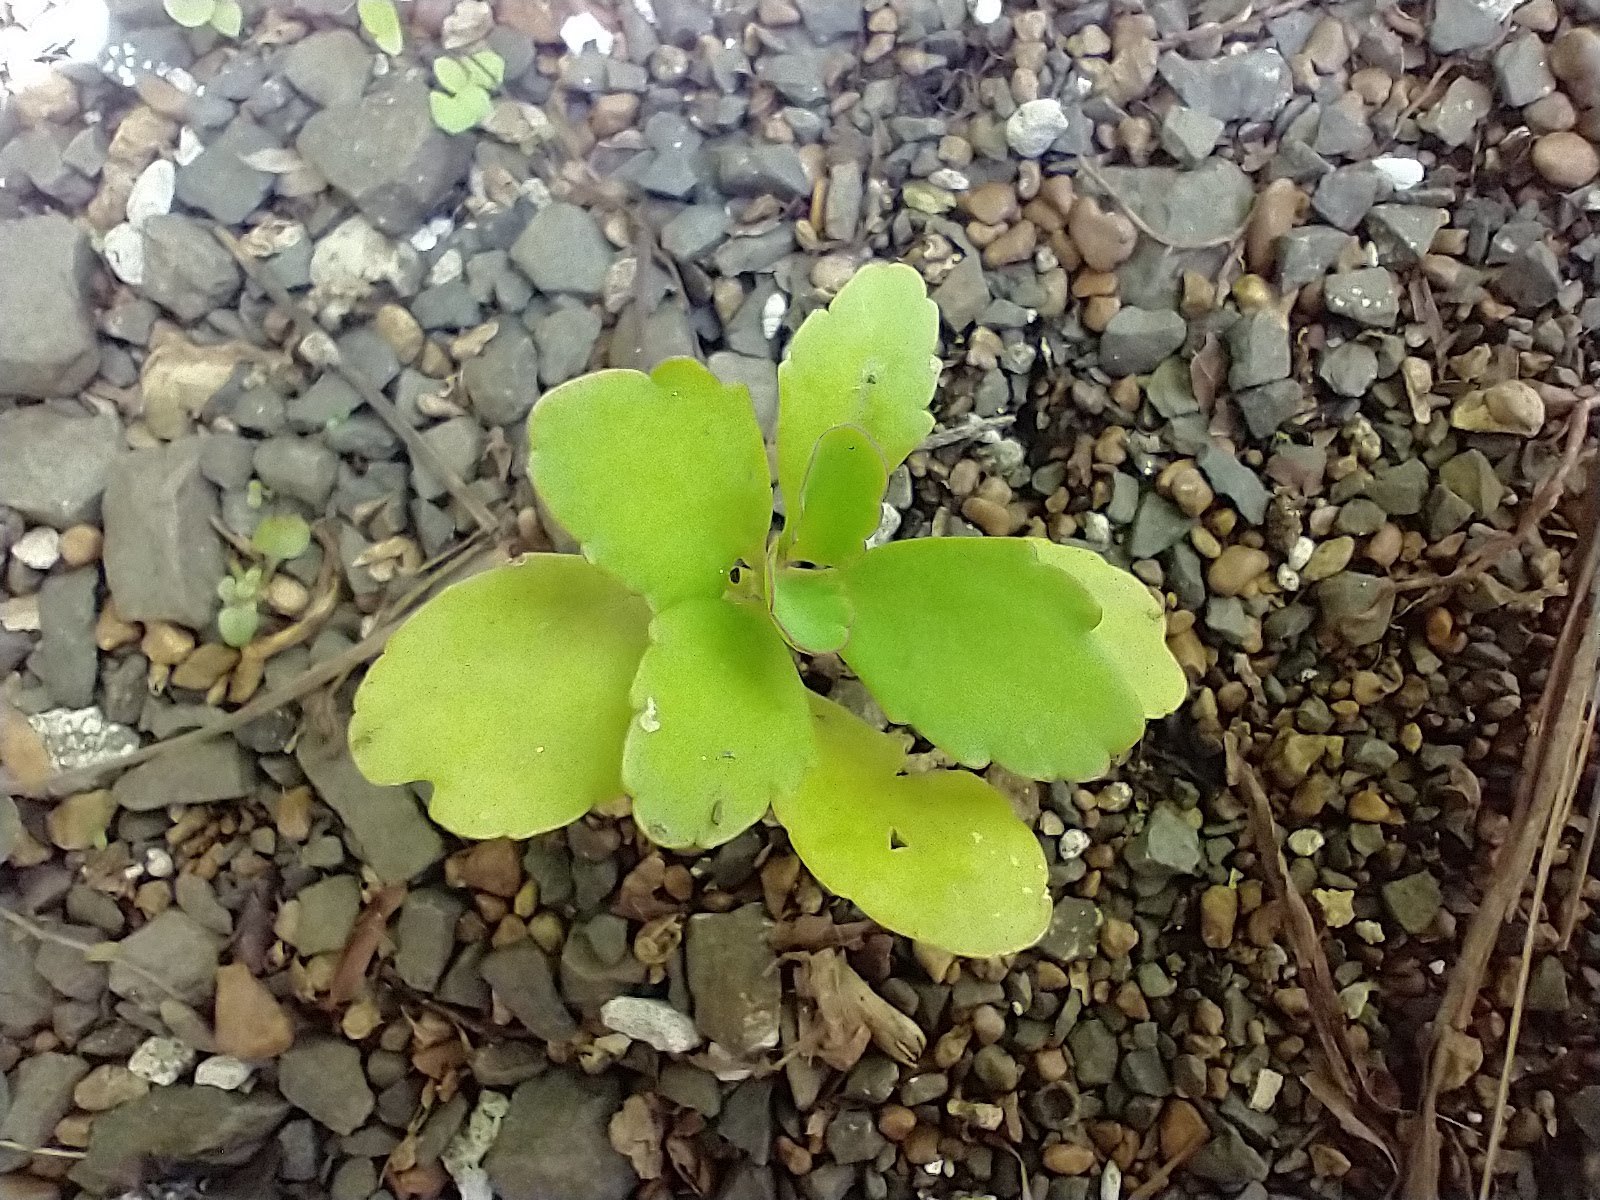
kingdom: Plantae
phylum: Tracheophyta
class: Magnoliopsida
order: Saxifragales
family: Crassulaceae
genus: Kalanchoe
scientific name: Kalanchoe pinnata
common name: Cathedral bells
